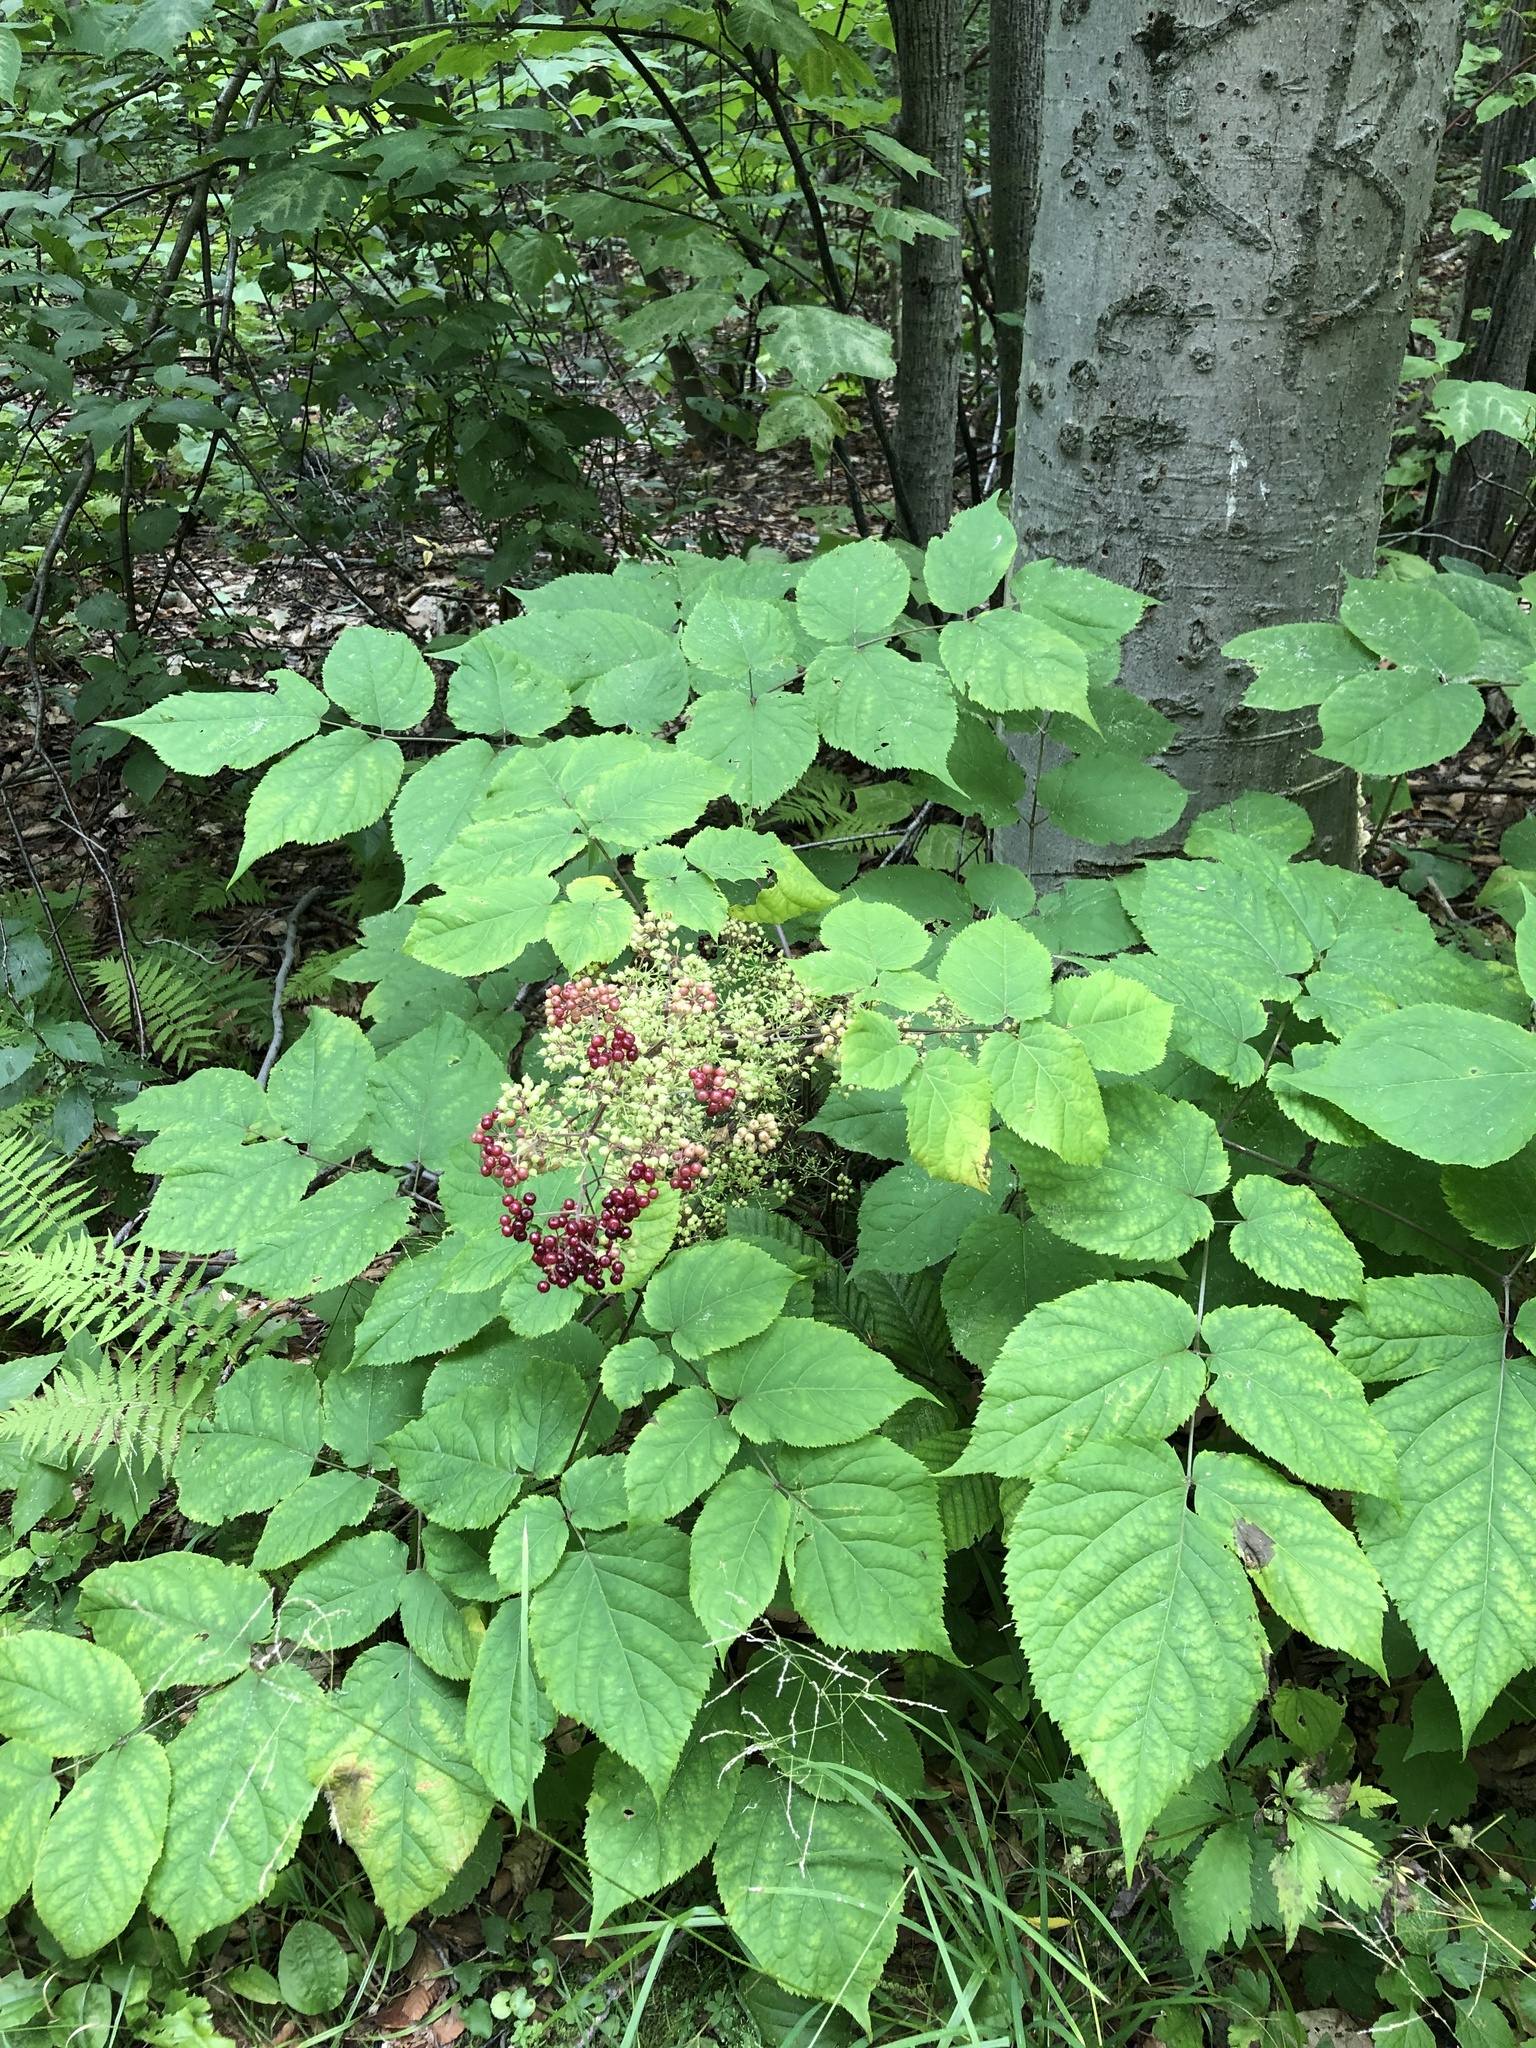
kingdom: Plantae
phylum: Tracheophyta
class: Magnoliopsida
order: Apiales
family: Araliaceae
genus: Aralia
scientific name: Aralia racemosa
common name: American-spikenard
